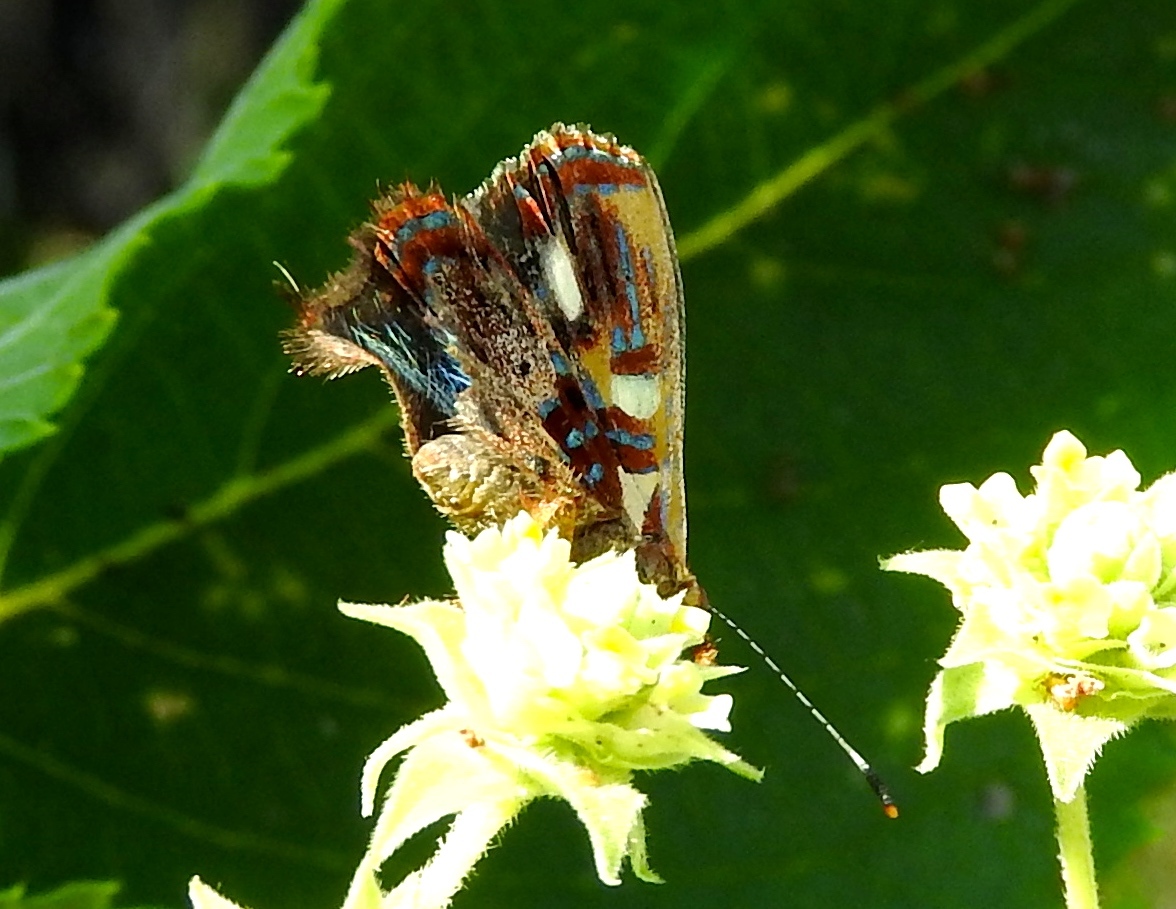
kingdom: Animalia
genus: Anteros
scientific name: Anteros carausius
